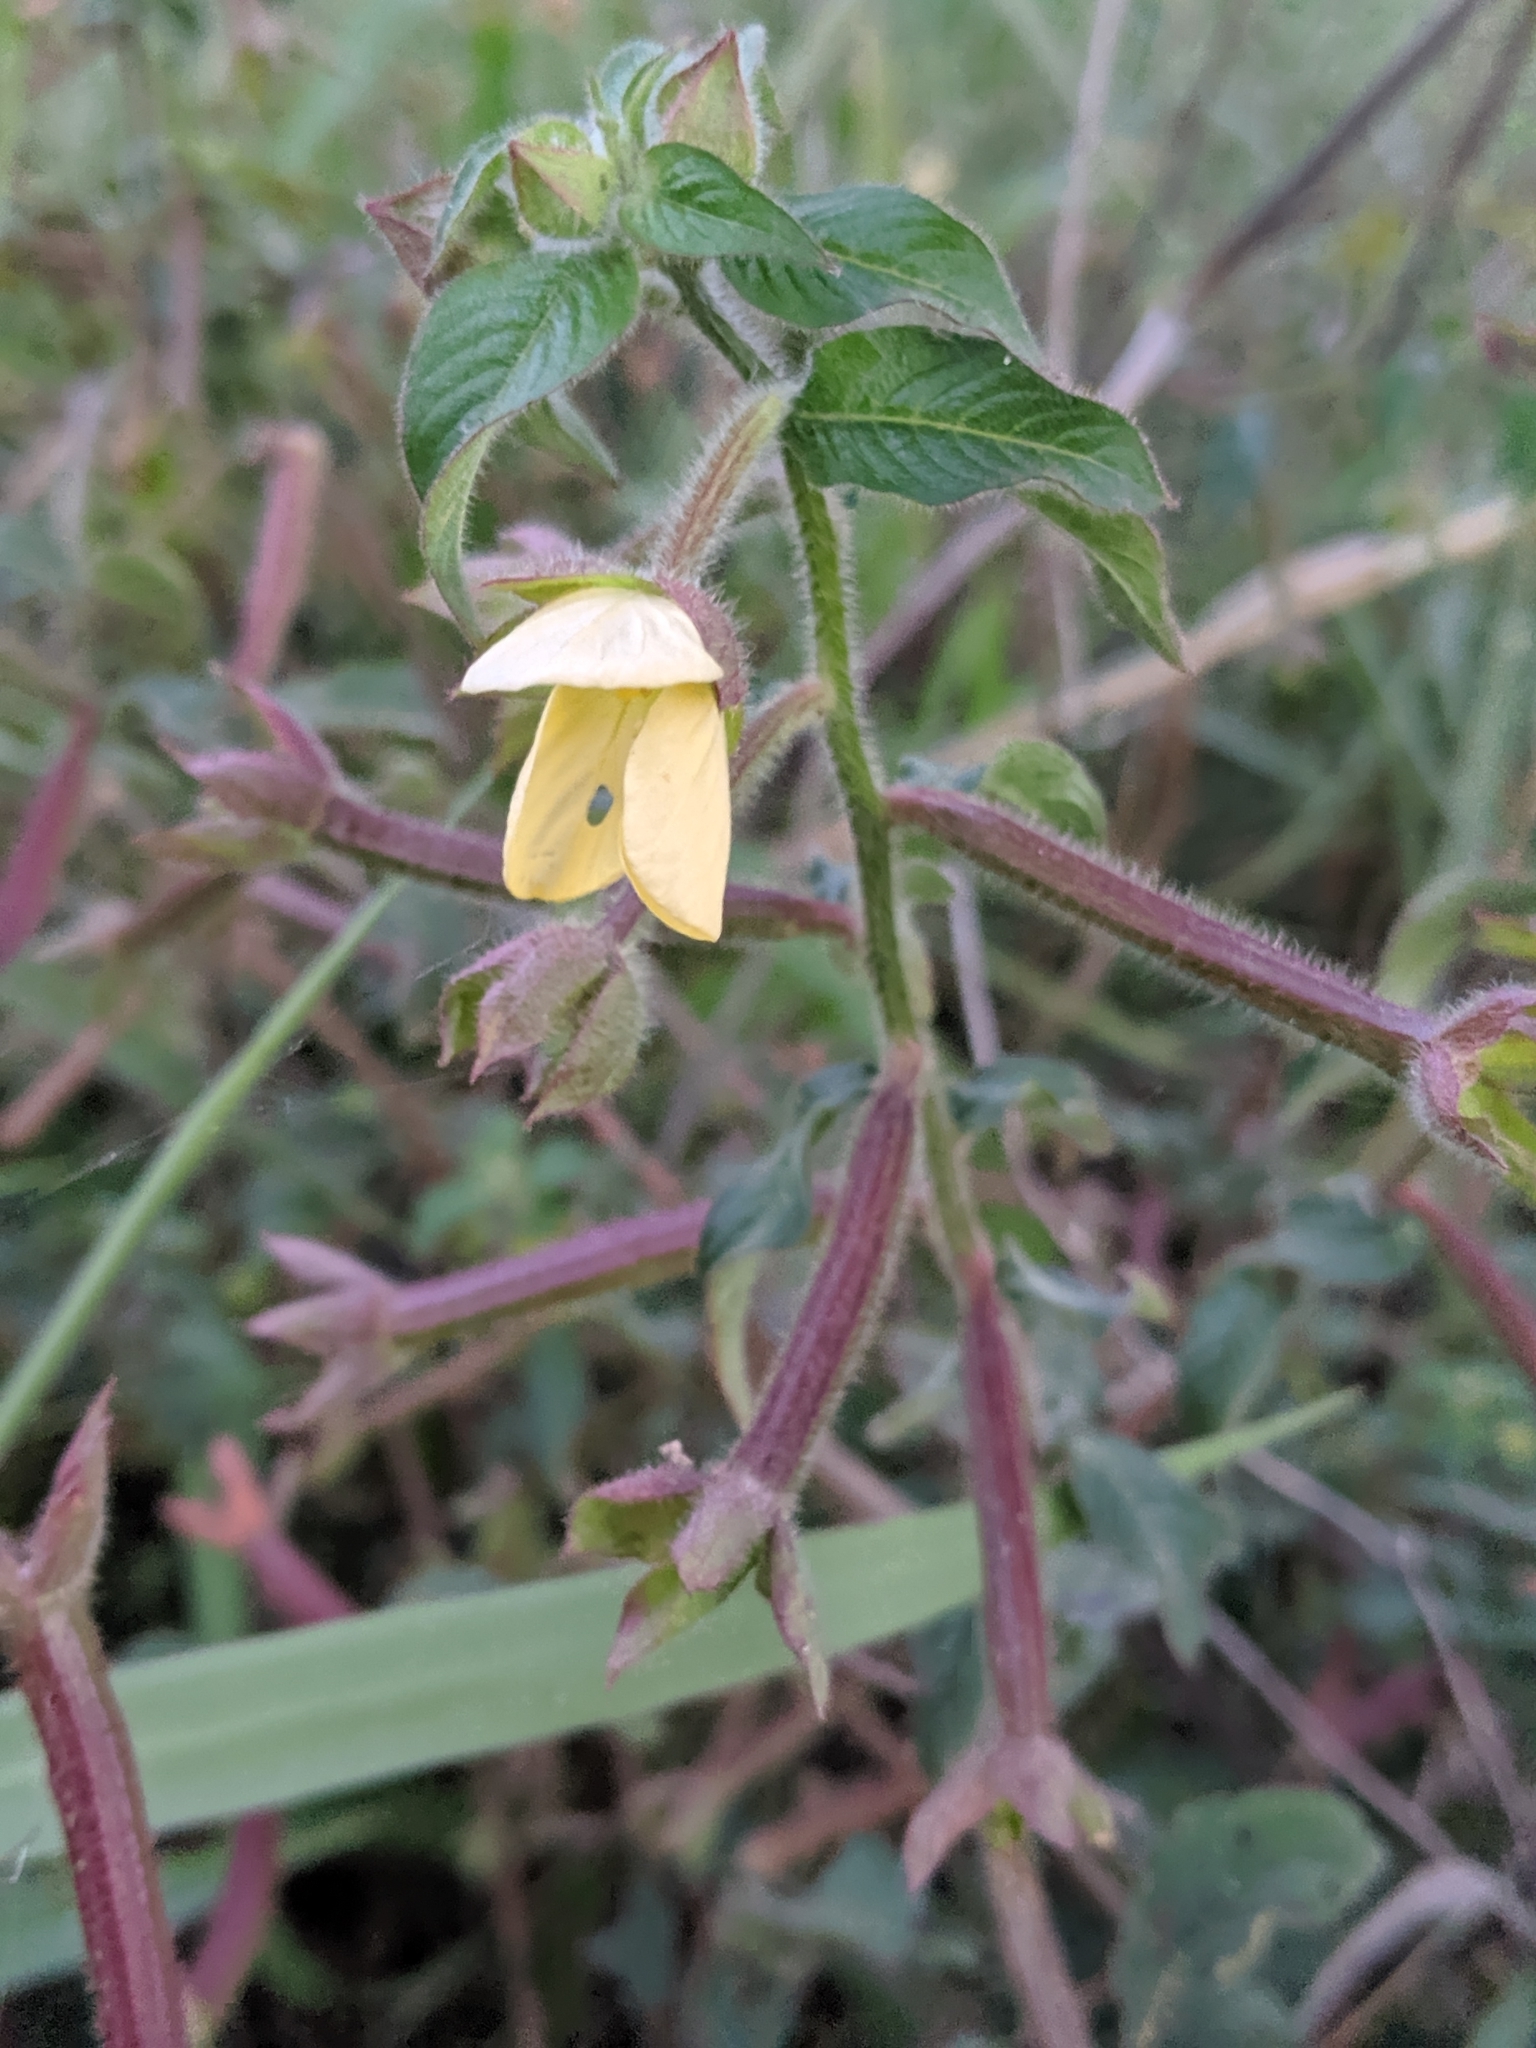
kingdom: Plantae
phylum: Tracheophyta
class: Magnoliopsida
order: Myrtales
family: Onagraceae
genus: Ludwigia
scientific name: Ludwigia octovalvis
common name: Water-primrose
